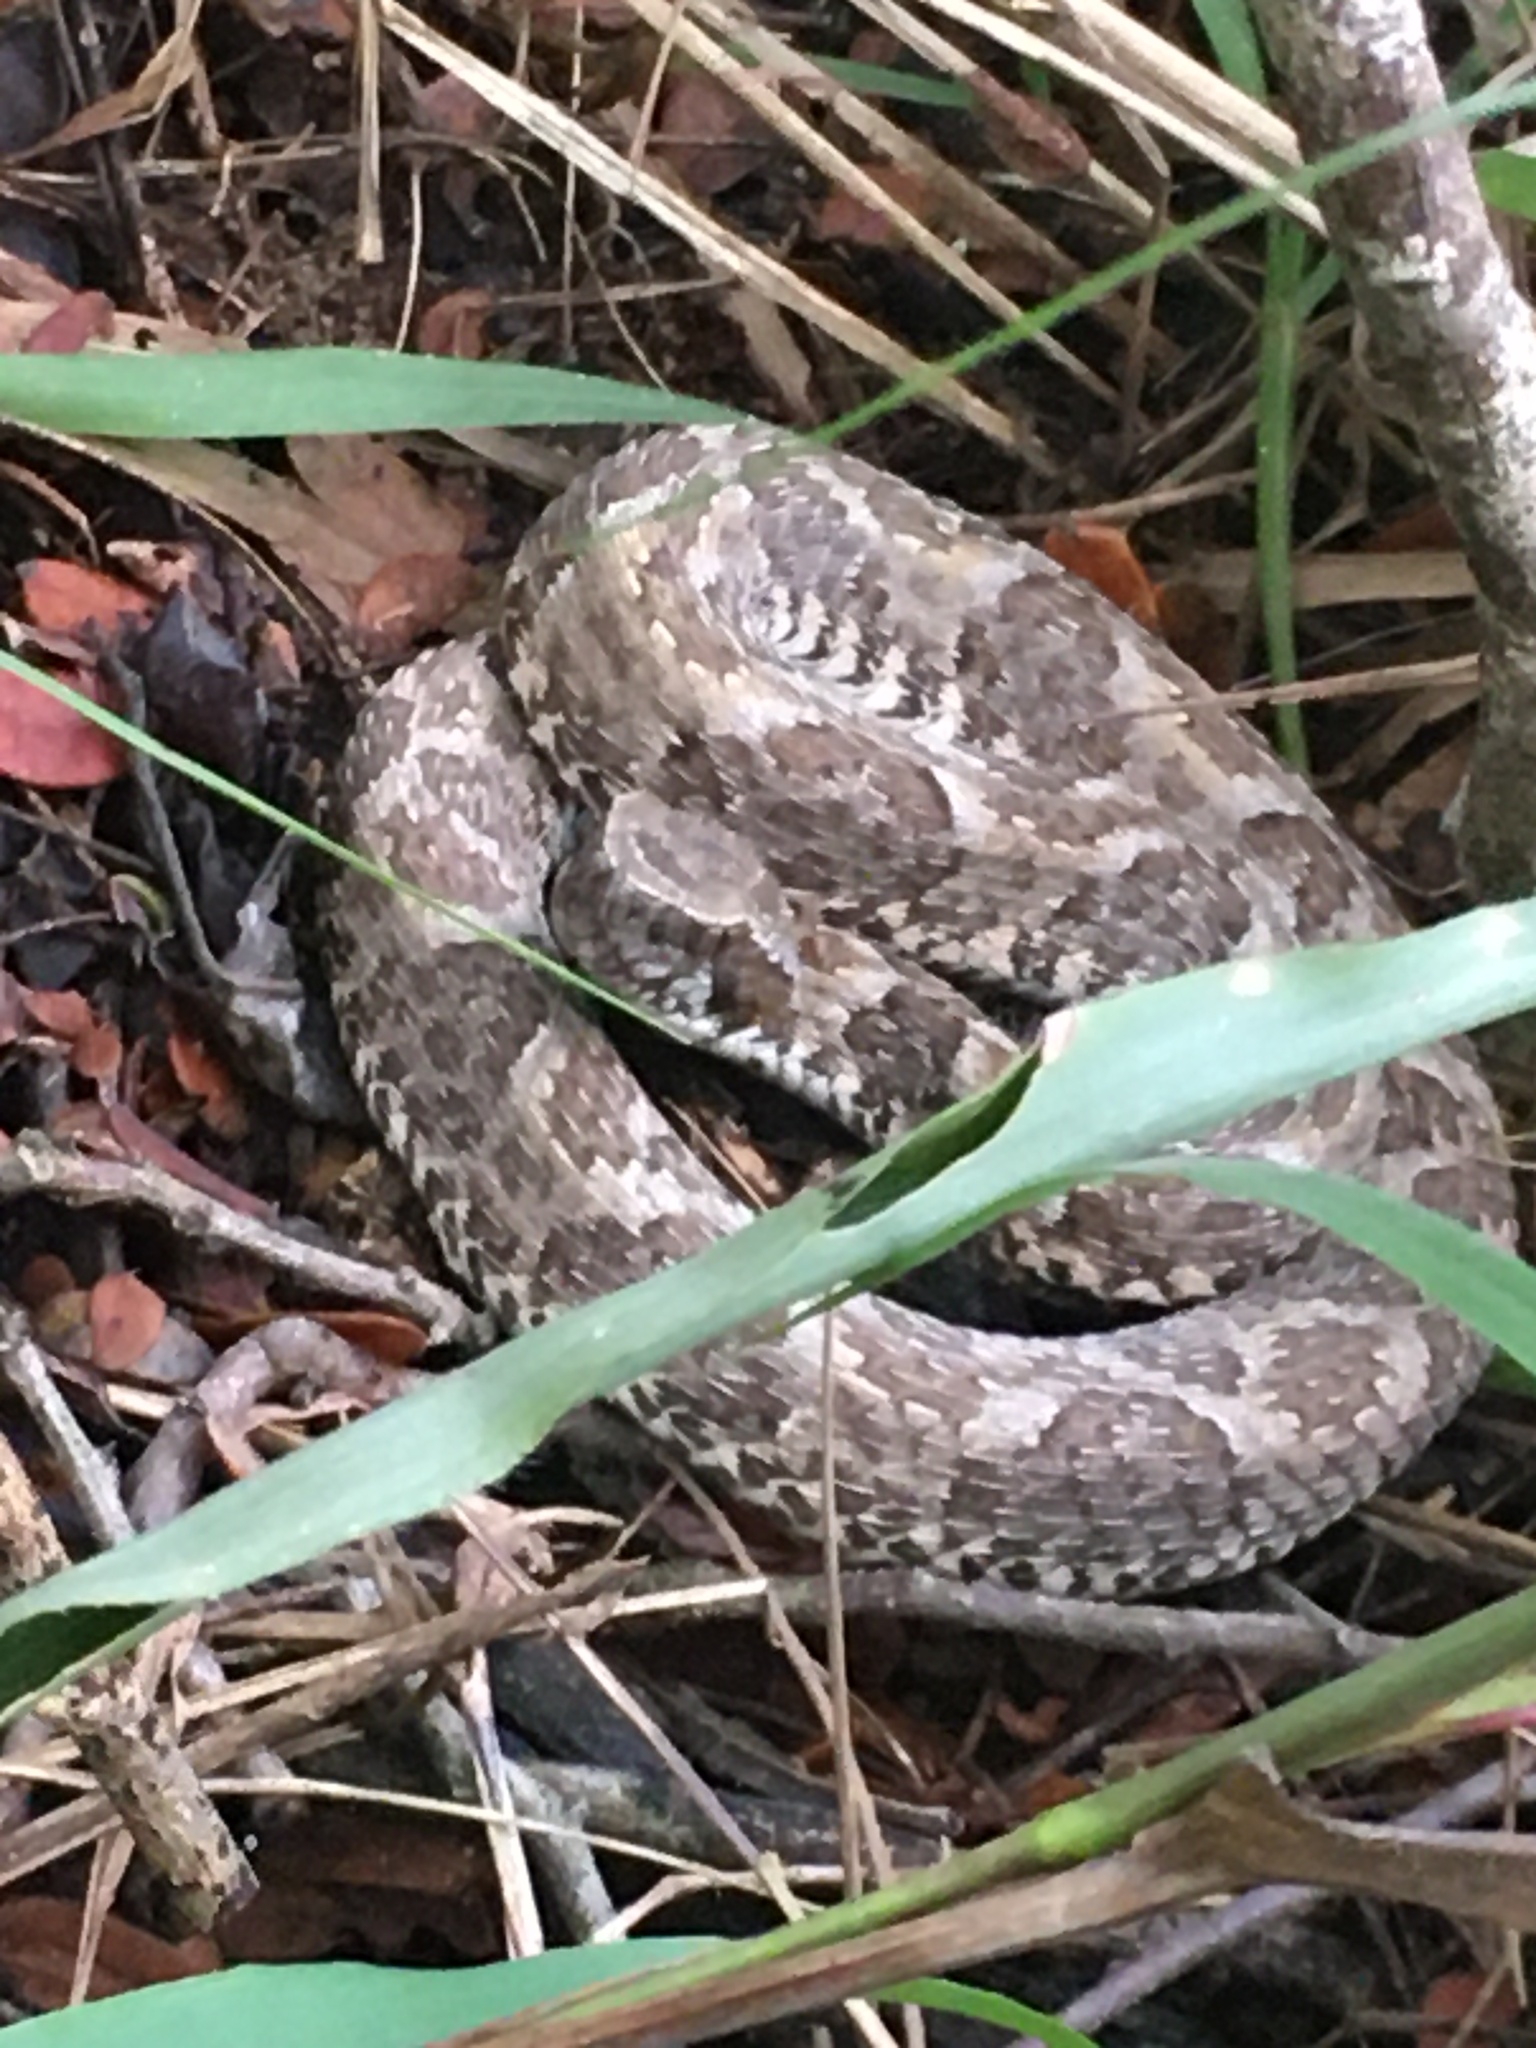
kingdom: Animalia
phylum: Chordata
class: Squamata
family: Viperidae
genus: Bothrops
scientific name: Bothrops erythromelas
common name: Caatinga lancehead
